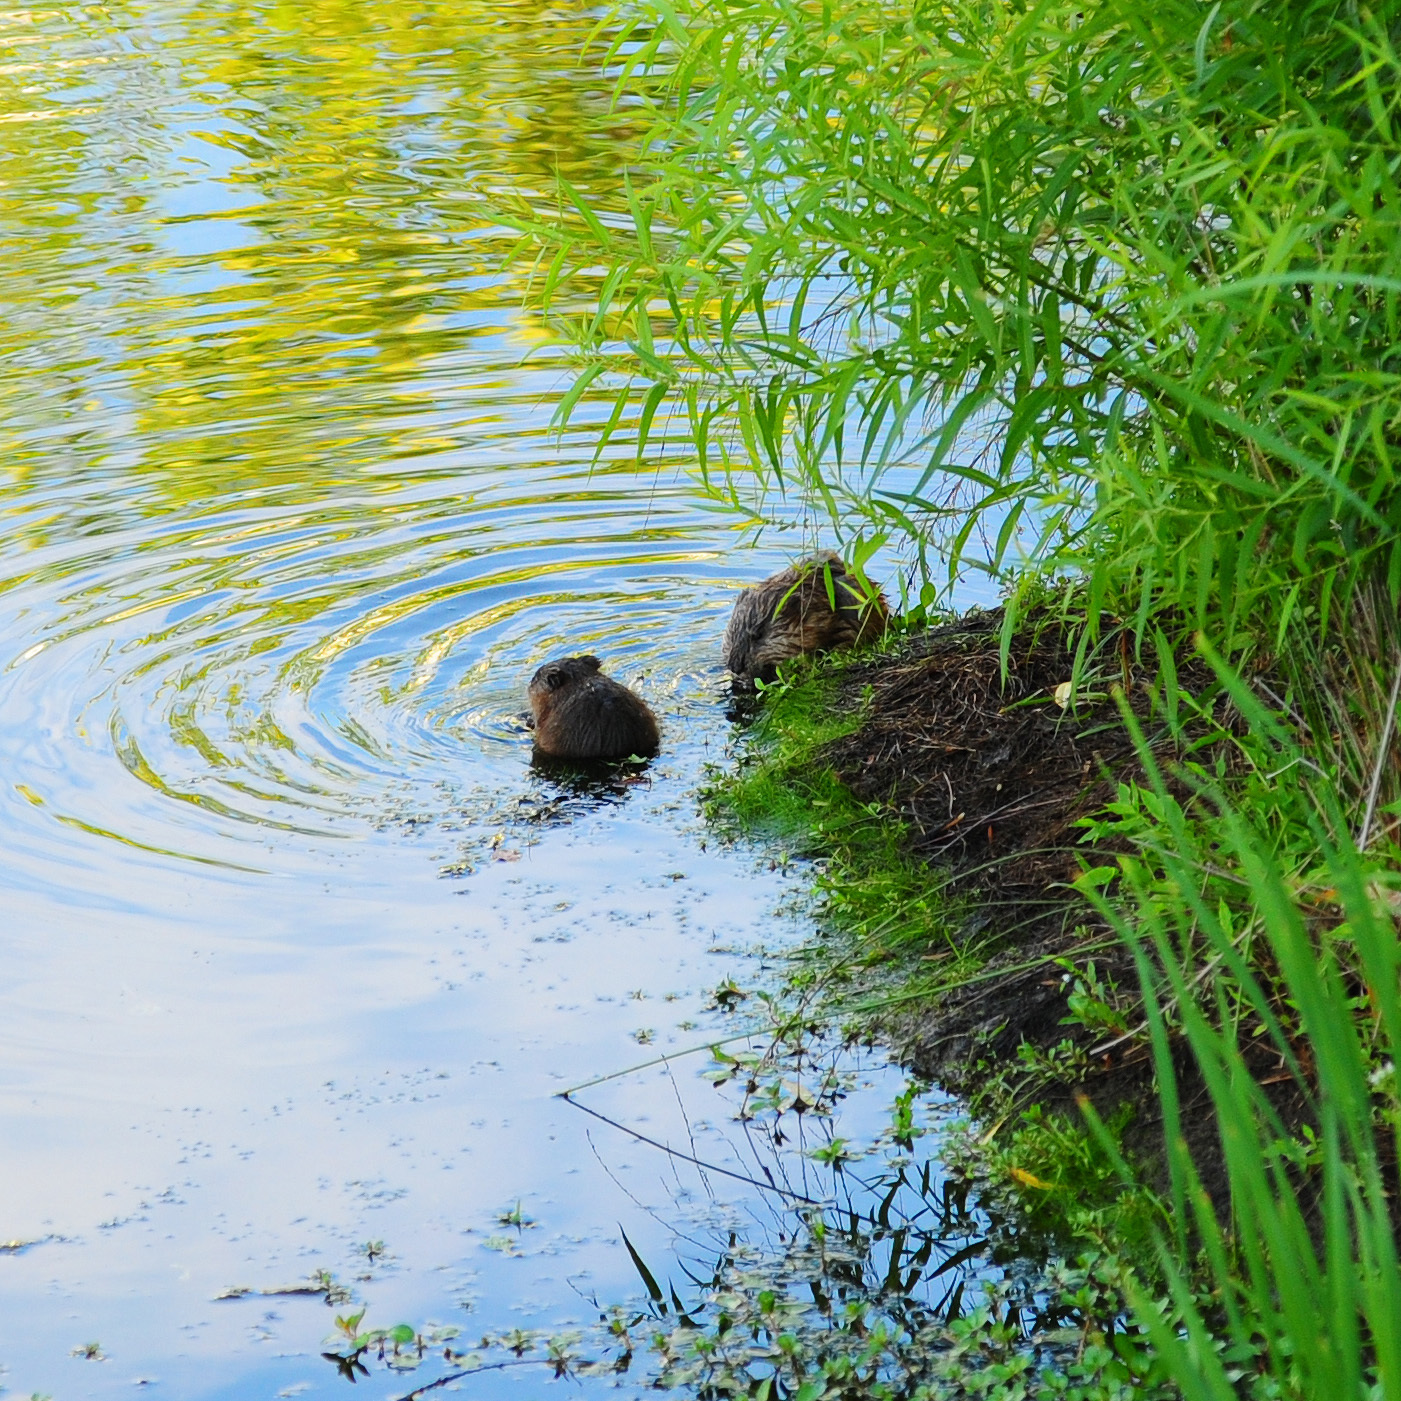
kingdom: Animalia
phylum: Chordata
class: Mammalia
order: Rodentia
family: Cricetidae
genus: Ondatra
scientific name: Ondatra zibethicus
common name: Muskrat
